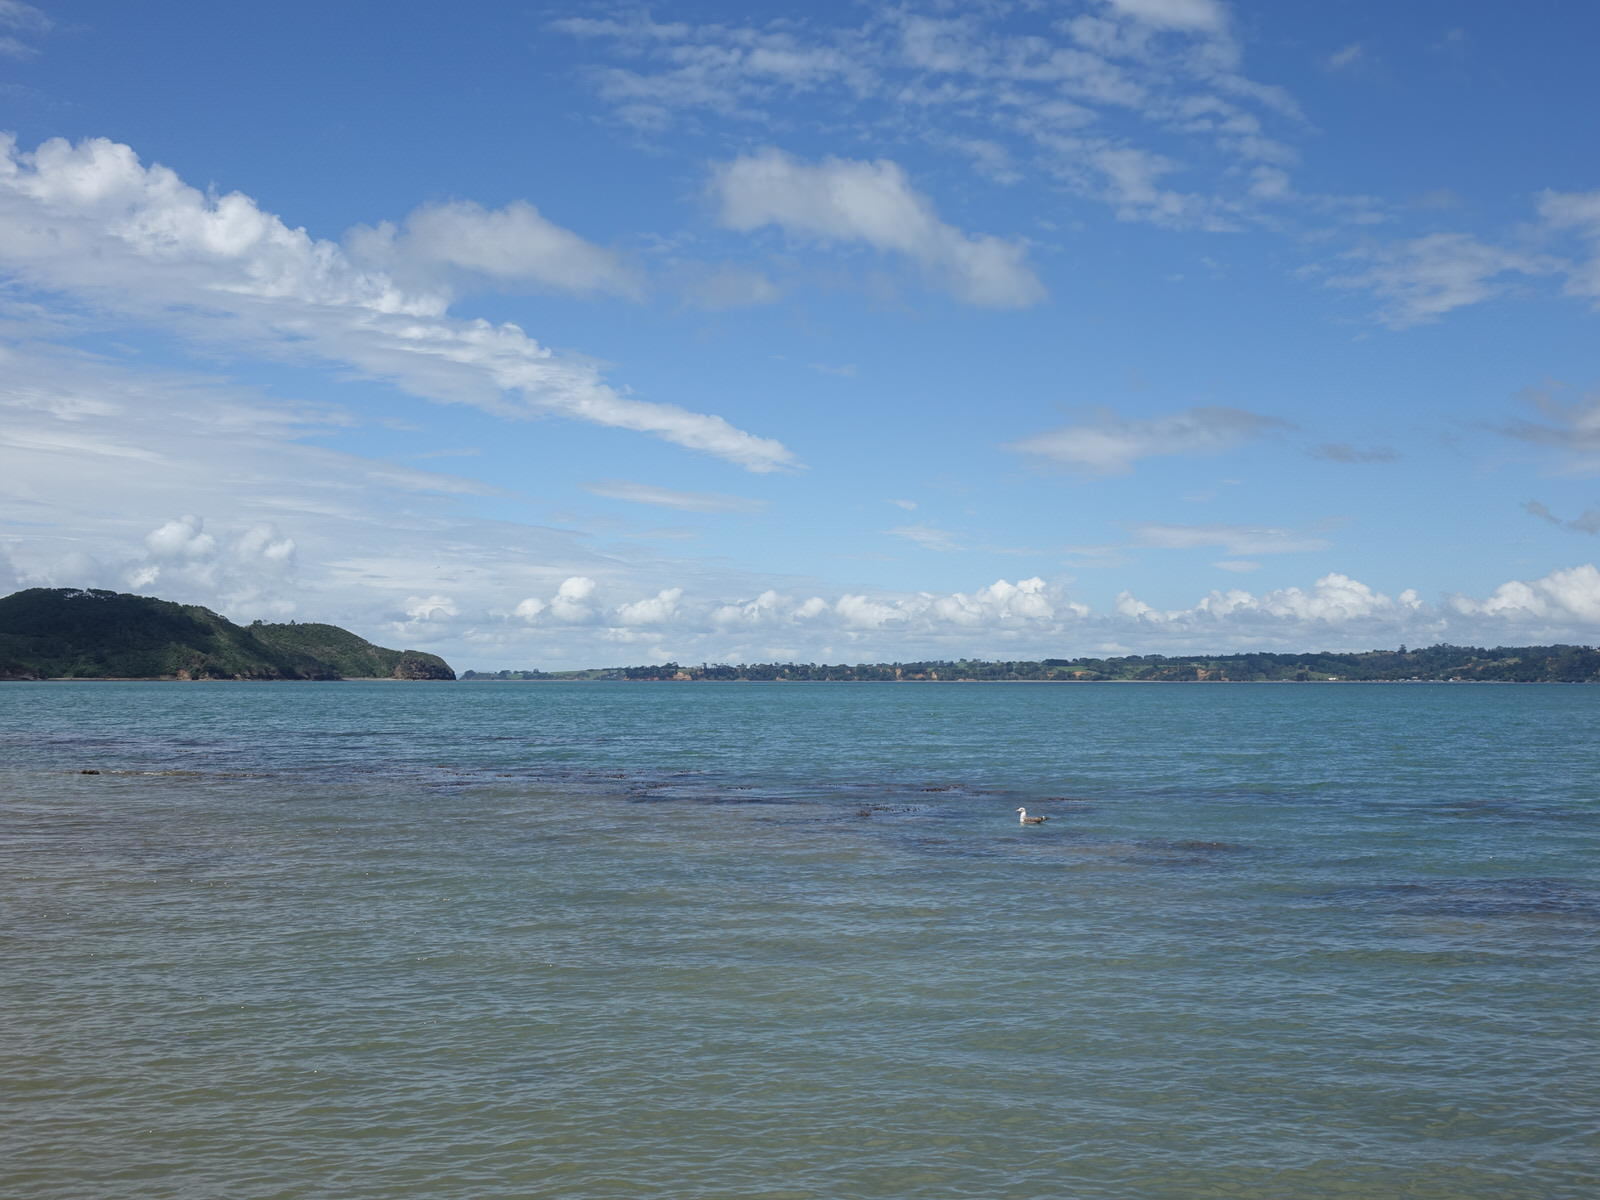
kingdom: Animalia
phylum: Chordata
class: Aves
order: Charadriiformes
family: Laridae
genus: Larus
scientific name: Larus dominicanus
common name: Kelp gull
